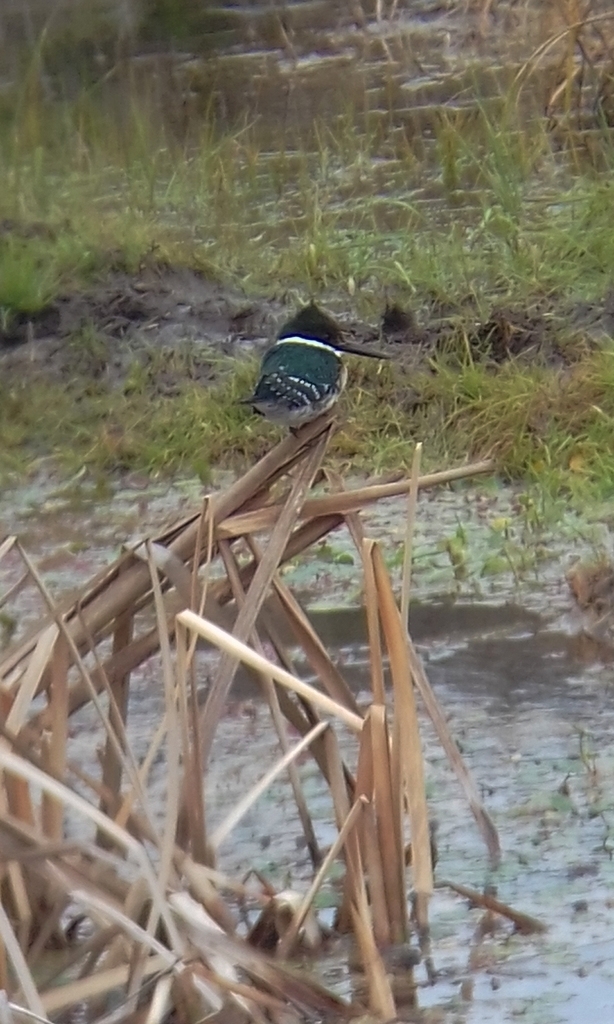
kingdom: Animalia
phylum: Chordata
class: Aves
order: Coraciiformes
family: Alcedinidae
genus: Chloroceryle
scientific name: Chloroceryle americana
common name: Green kingfisher
